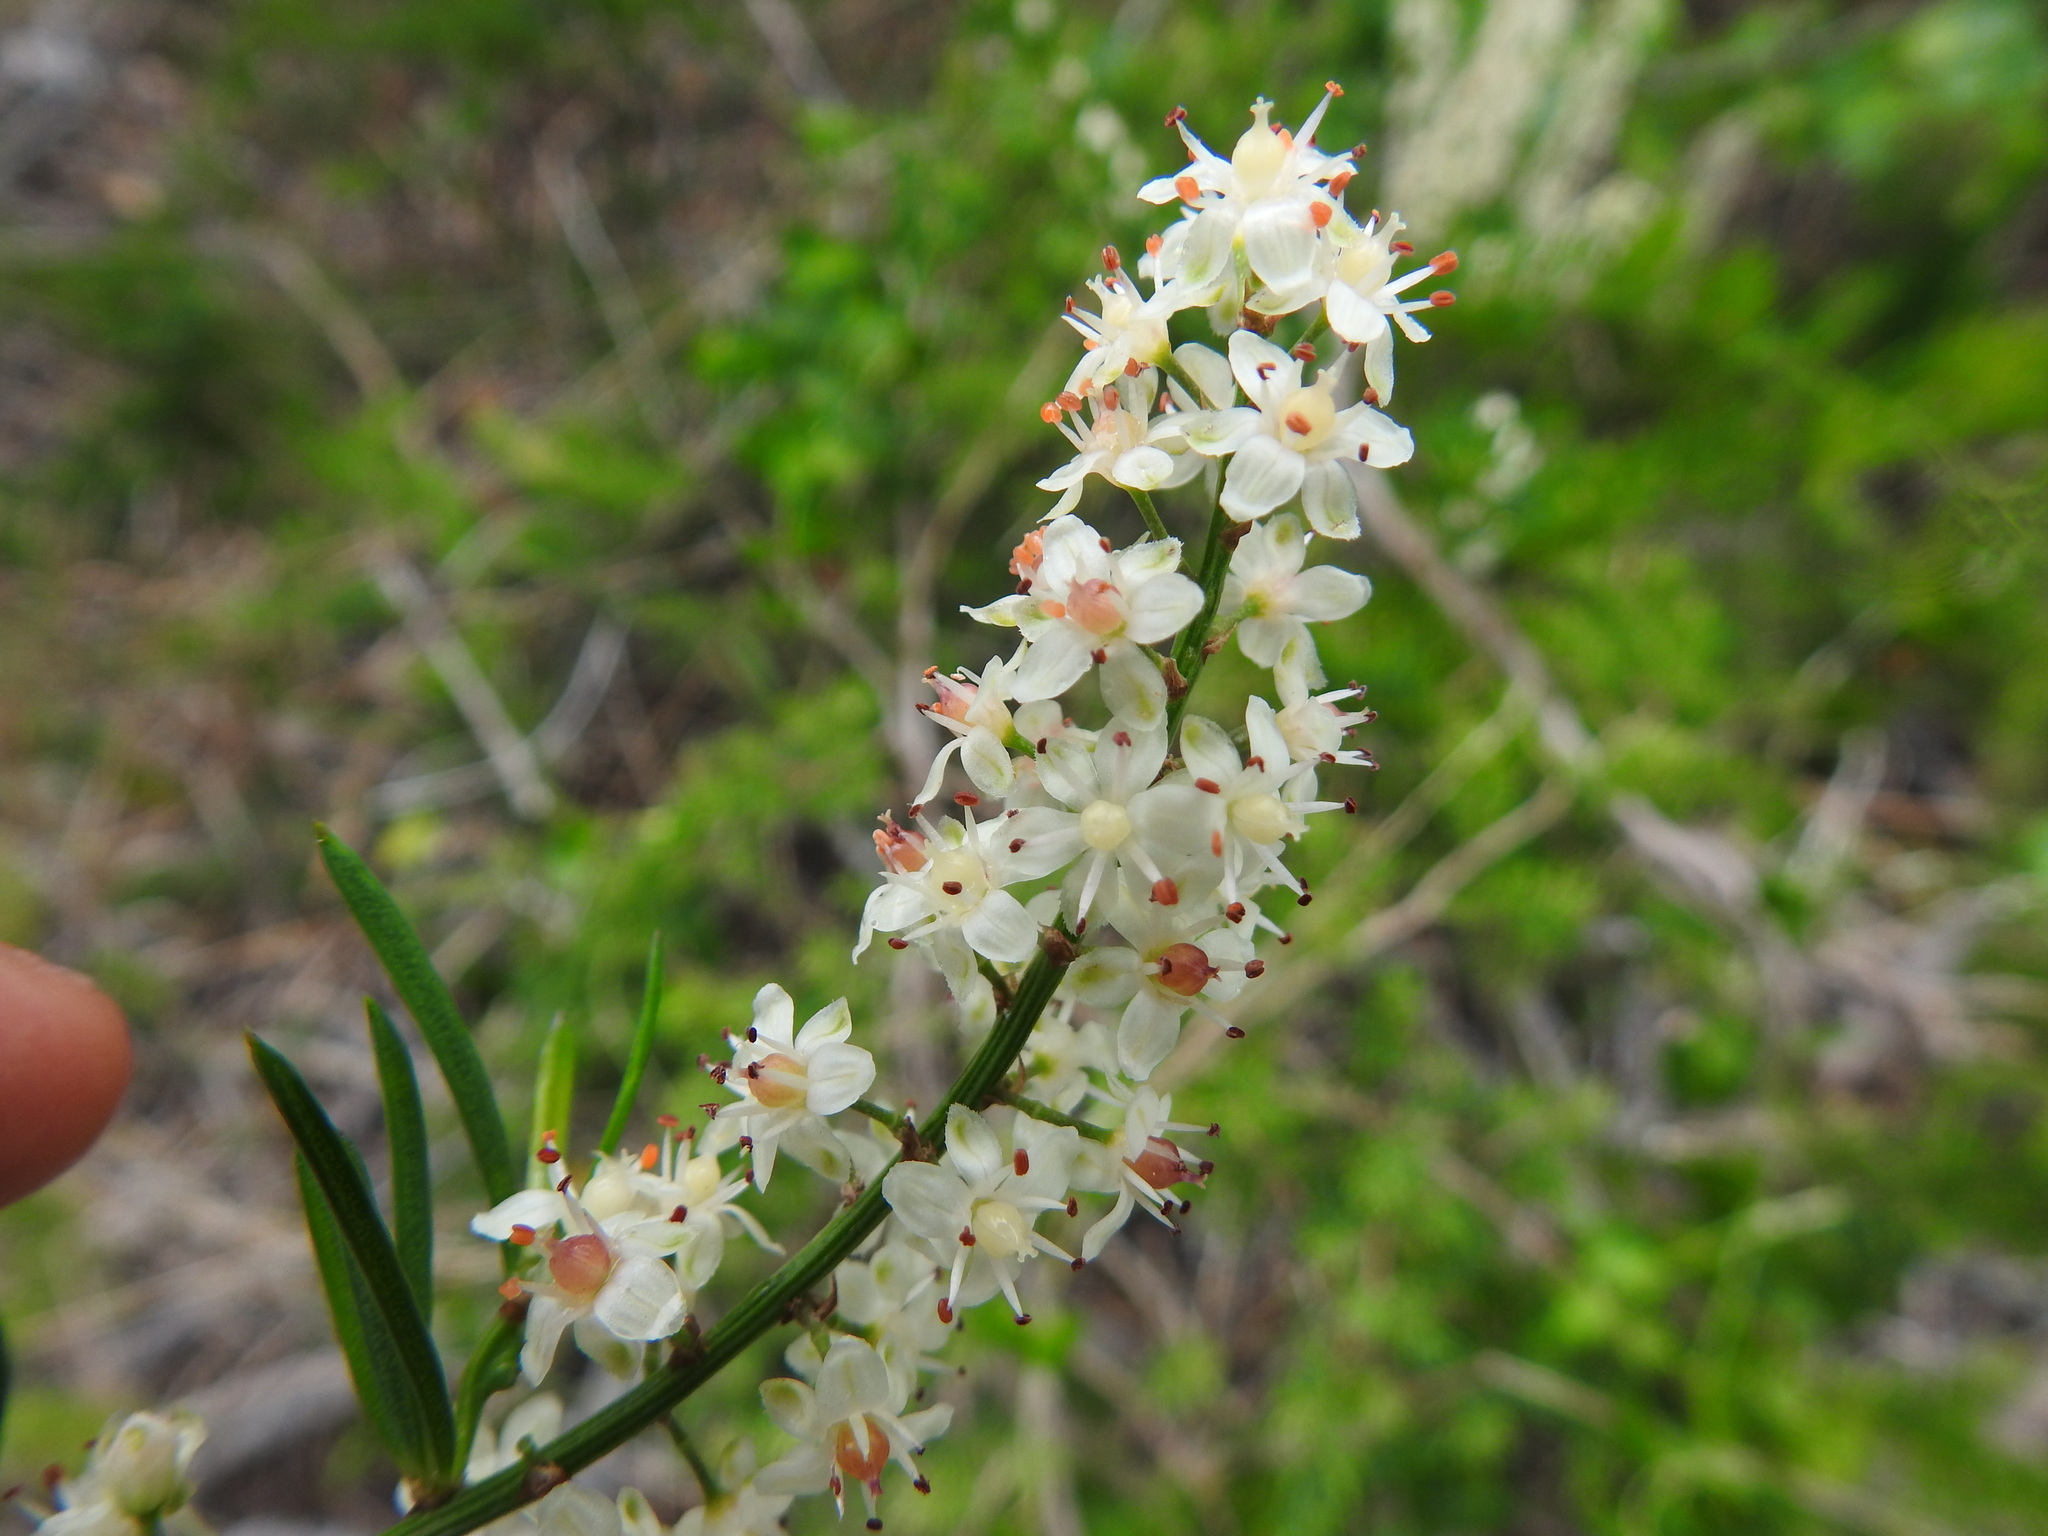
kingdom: Plantae
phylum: Tracheophyta
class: Liliopsida
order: Asparagales
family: Asparagaceae
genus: Asparagus
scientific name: Asparagus aethiopicus
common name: Sprenger's asparagus fern
